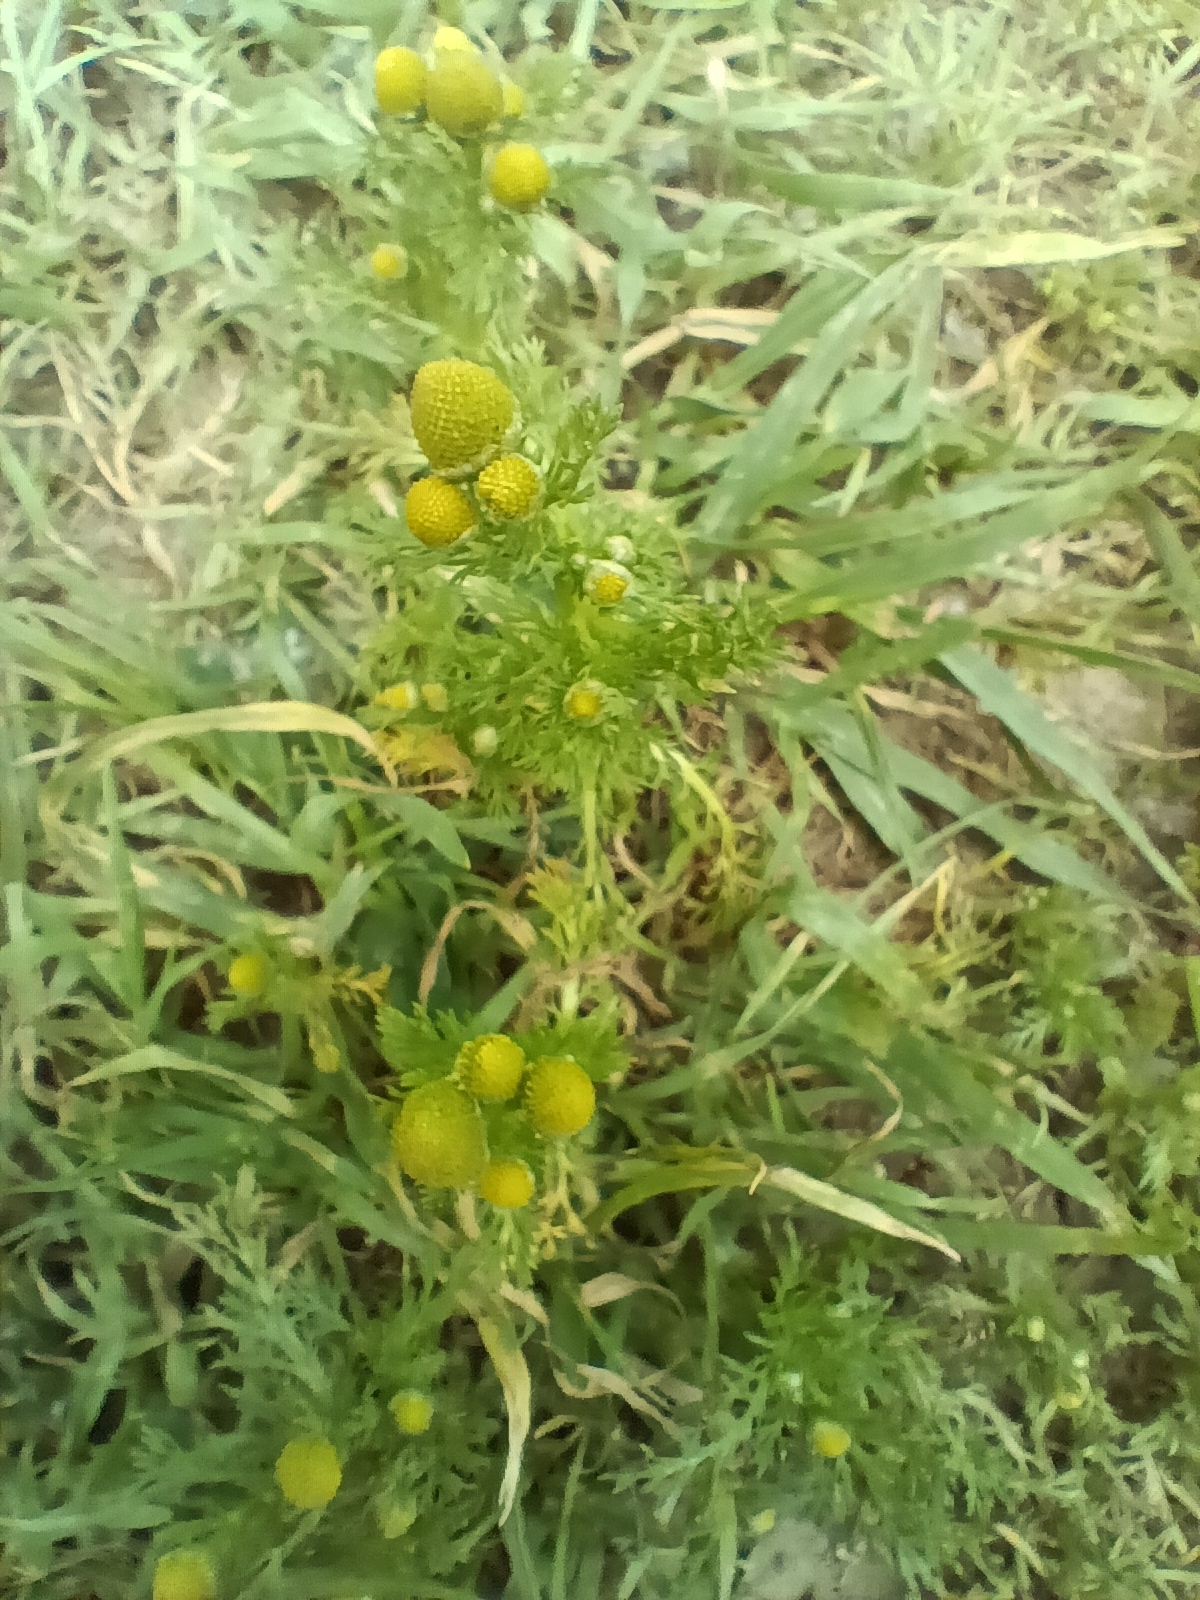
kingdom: Plantae
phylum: Tracheophyta
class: Magnoliopsida
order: Asterales
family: Asteraceae
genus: Matricaria
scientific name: Matricaria discoidea
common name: Disc mayweed
